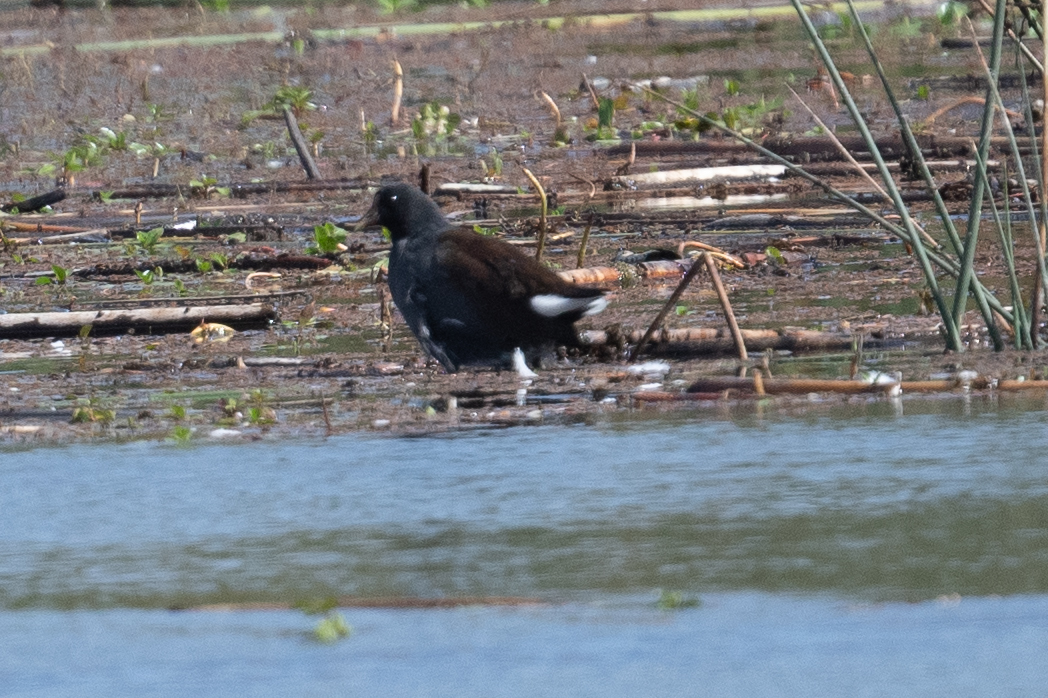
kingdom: Animalia
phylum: Chordata
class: Aves
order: Gruiformes
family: Rallidae
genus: Gallinula
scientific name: Gallinula chloropus
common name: Common moorhen
